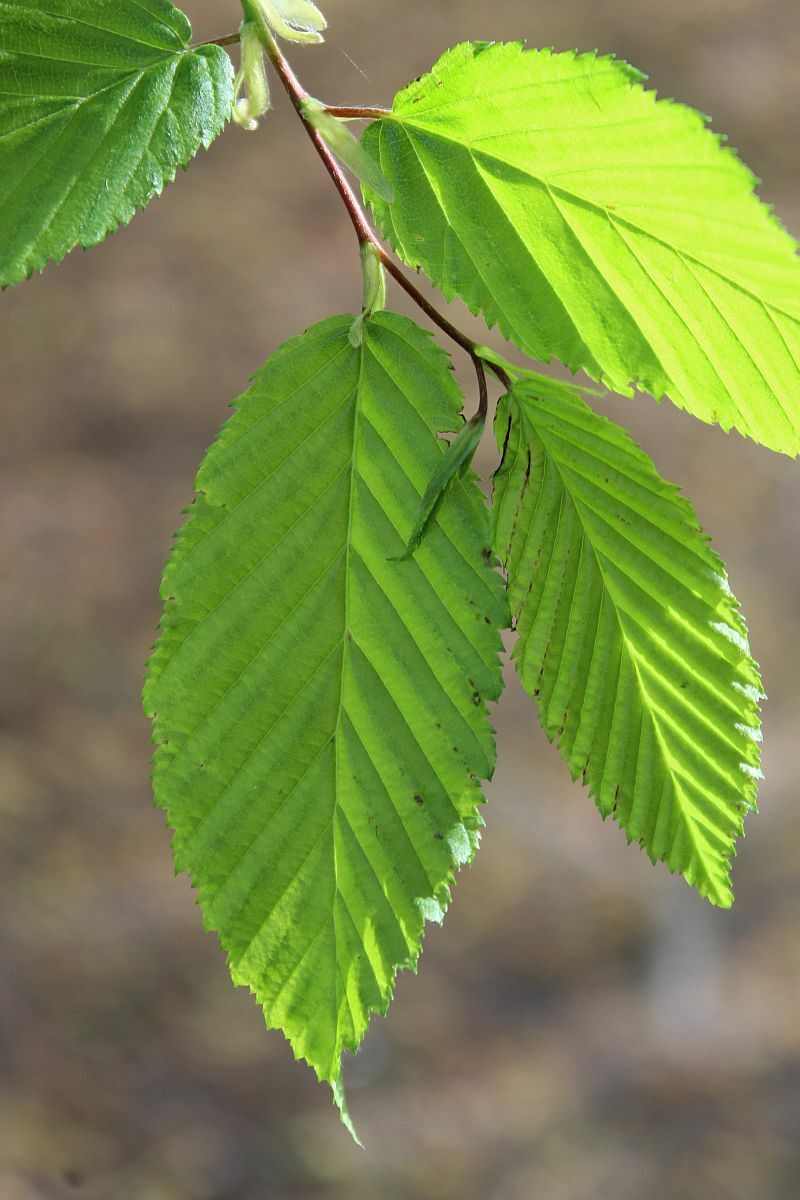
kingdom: Plantae
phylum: Tracheophyta
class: Magnoliopsida
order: Fagales
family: Betulaceae
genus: Carpinus
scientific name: Carpinus betulus
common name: Hornbeam
